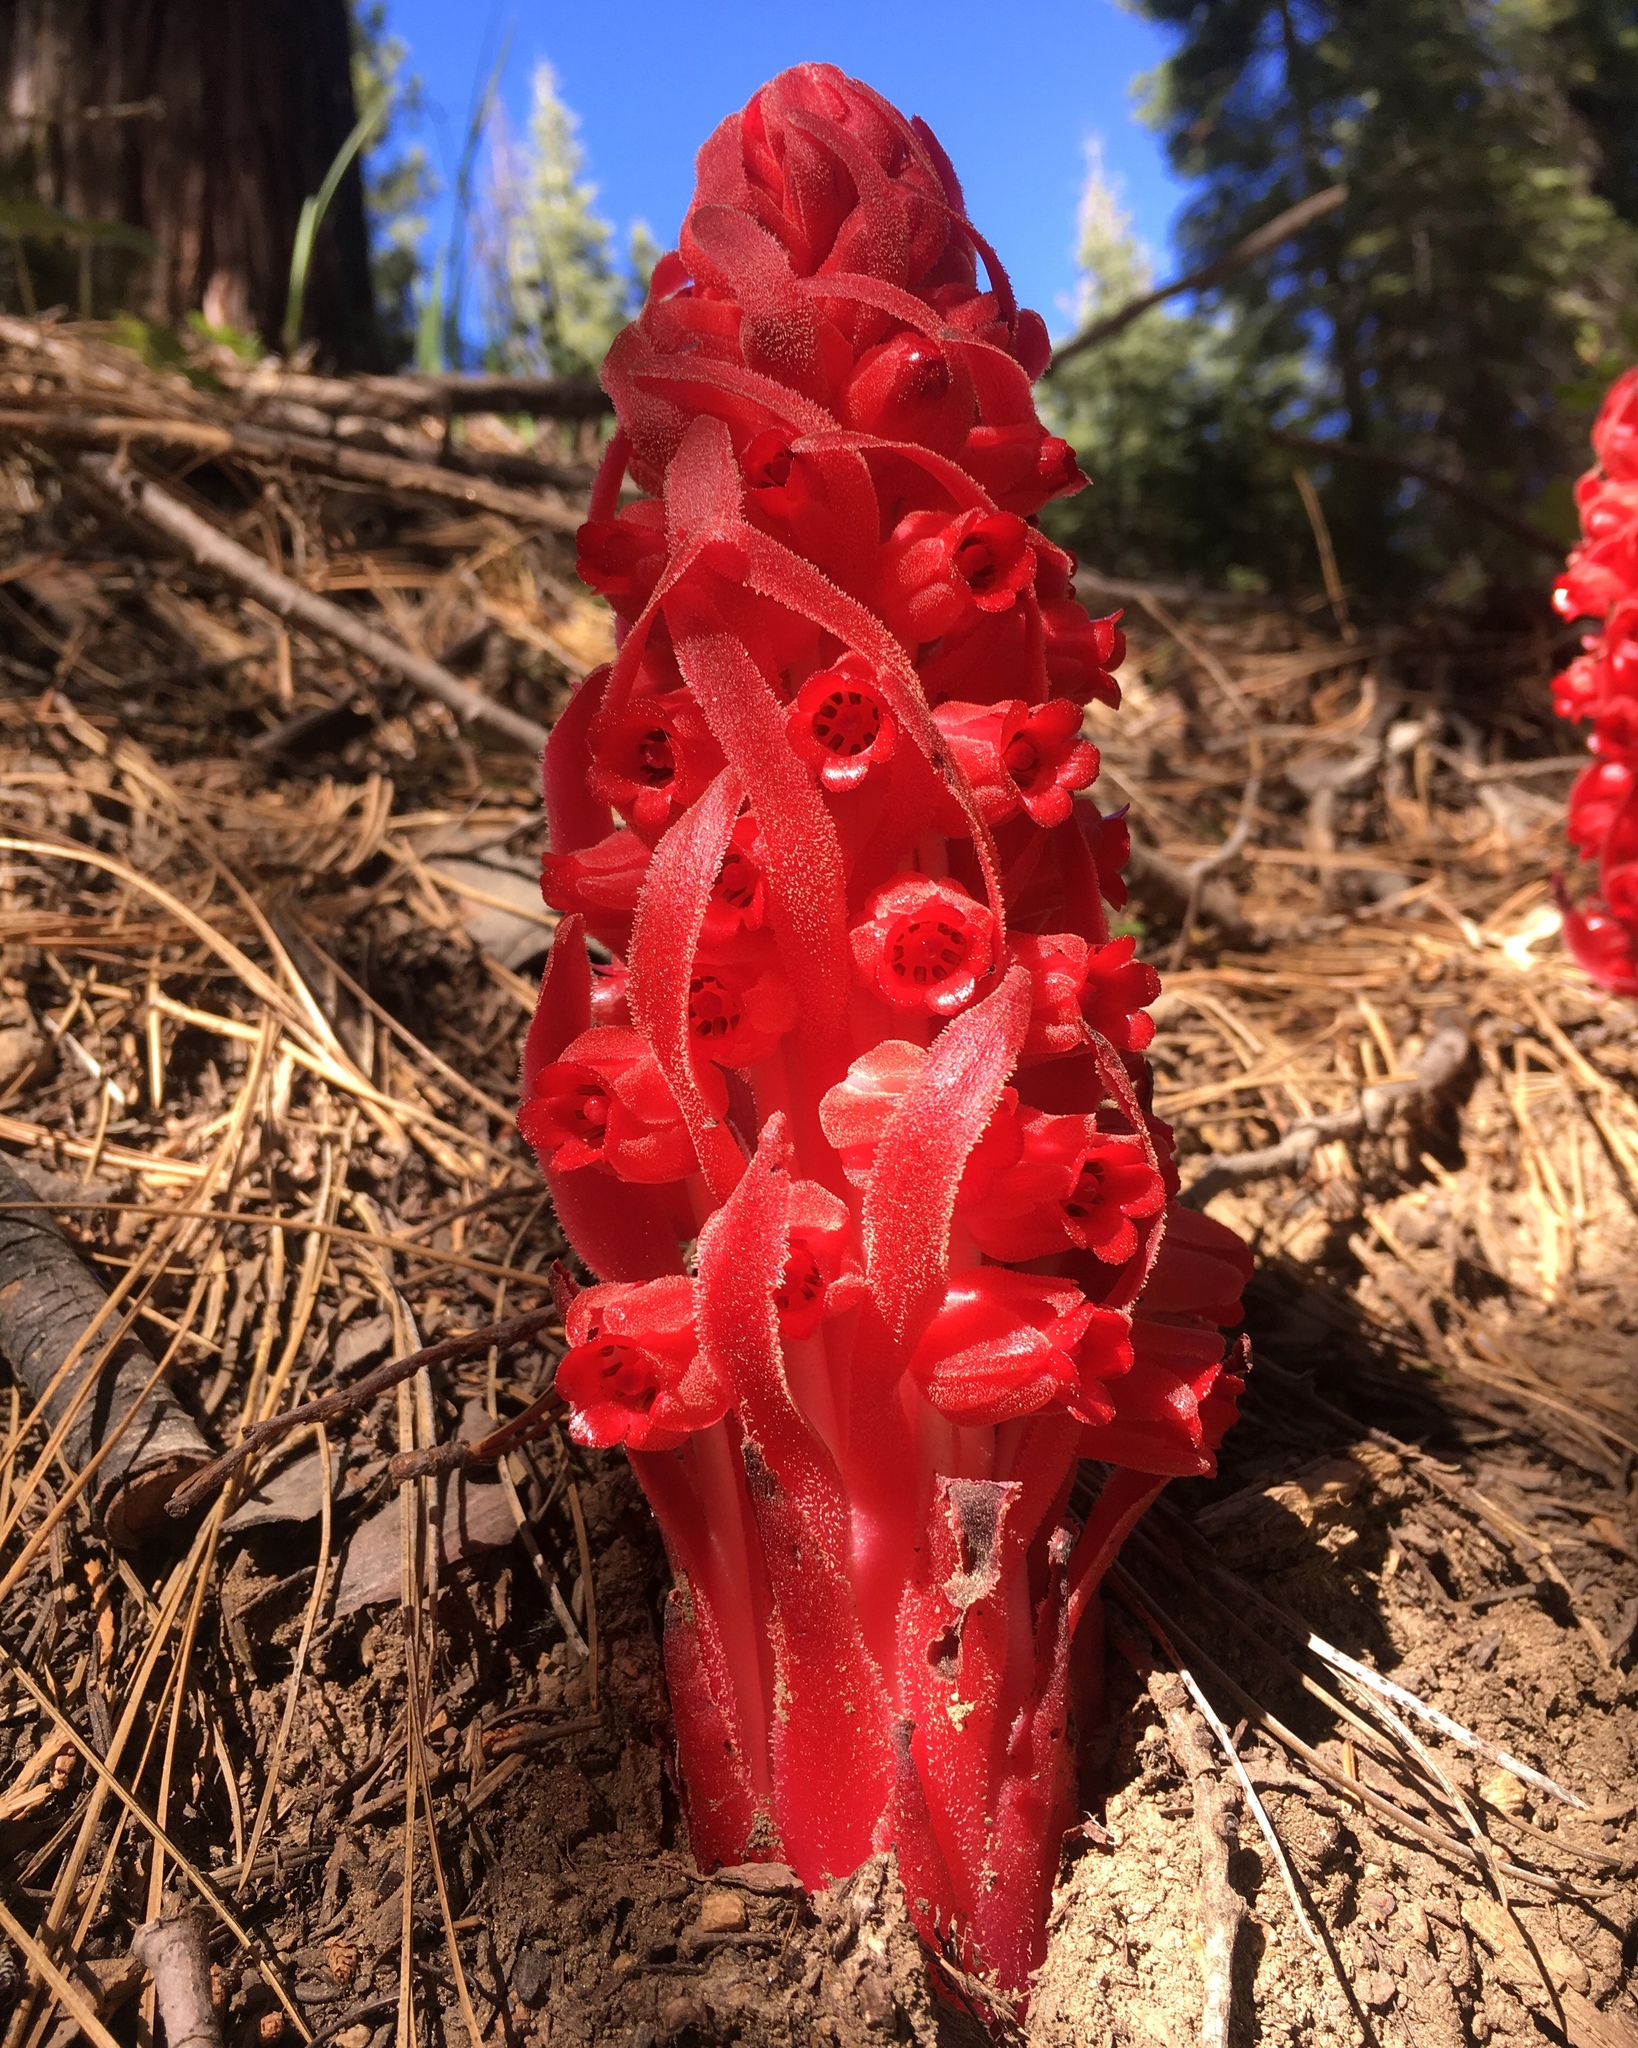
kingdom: Plantae
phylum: Tracheophyta
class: Magnoliopsida
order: Ericales
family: Ericaceae
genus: Sarcodes
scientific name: Sarcodes sanguinea
